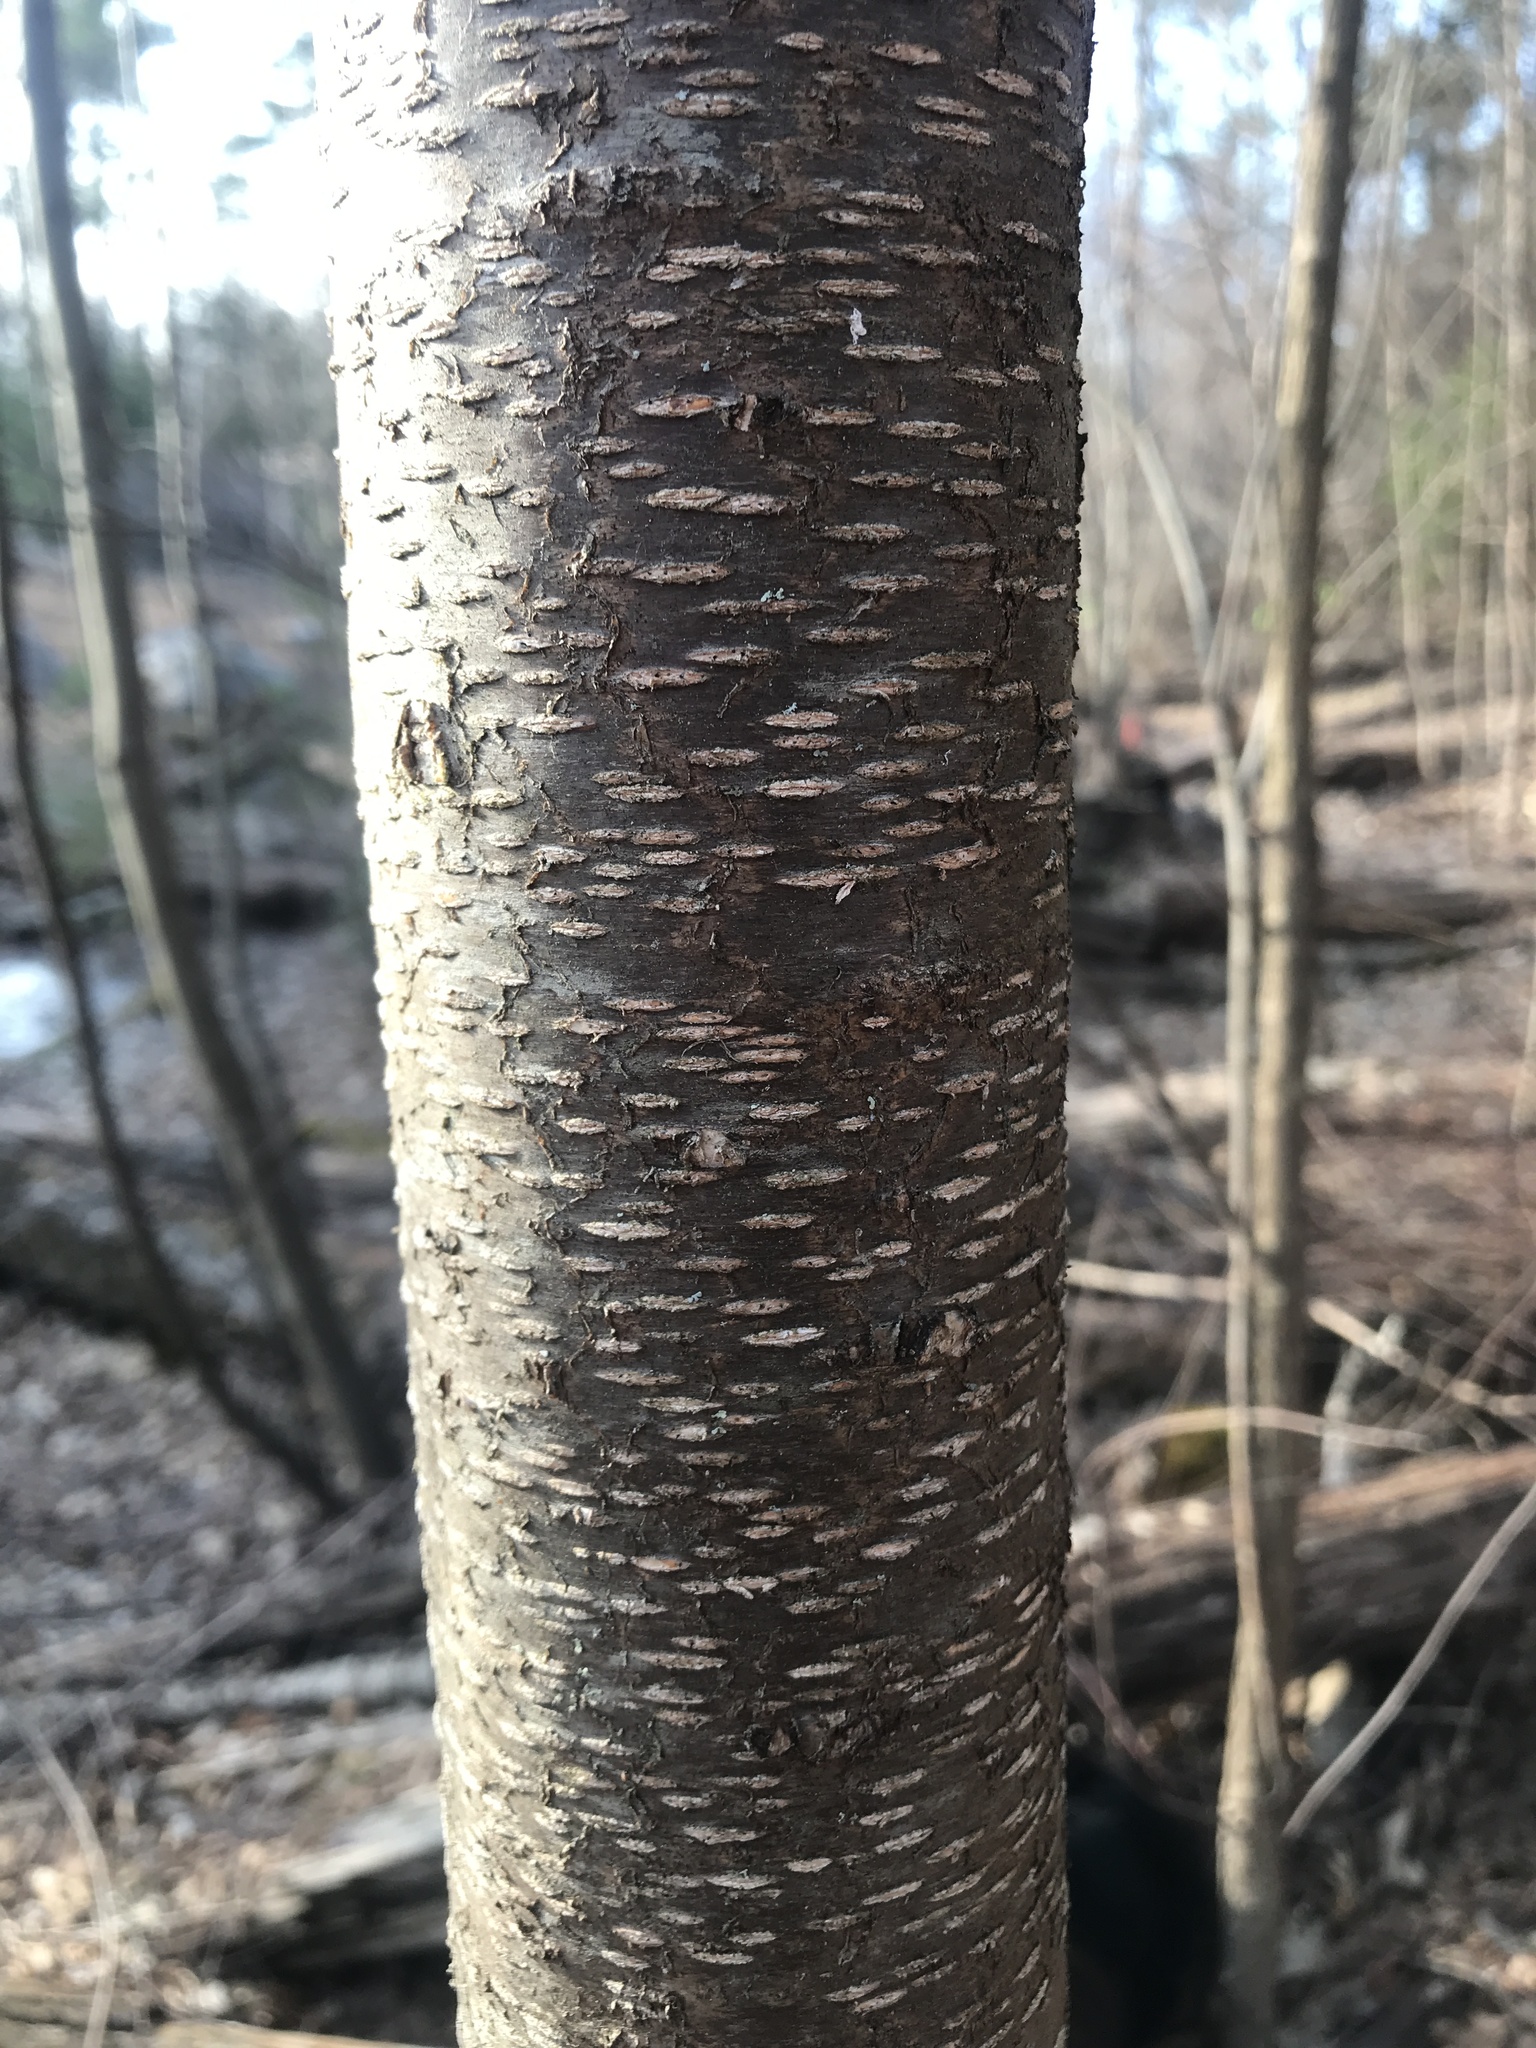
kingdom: Plantae
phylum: Tracheophyta
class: Magnoliopsida
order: Rosales
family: Rosaceae
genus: Prunus
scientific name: Prunus pensylvanica
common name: Pin cherry
